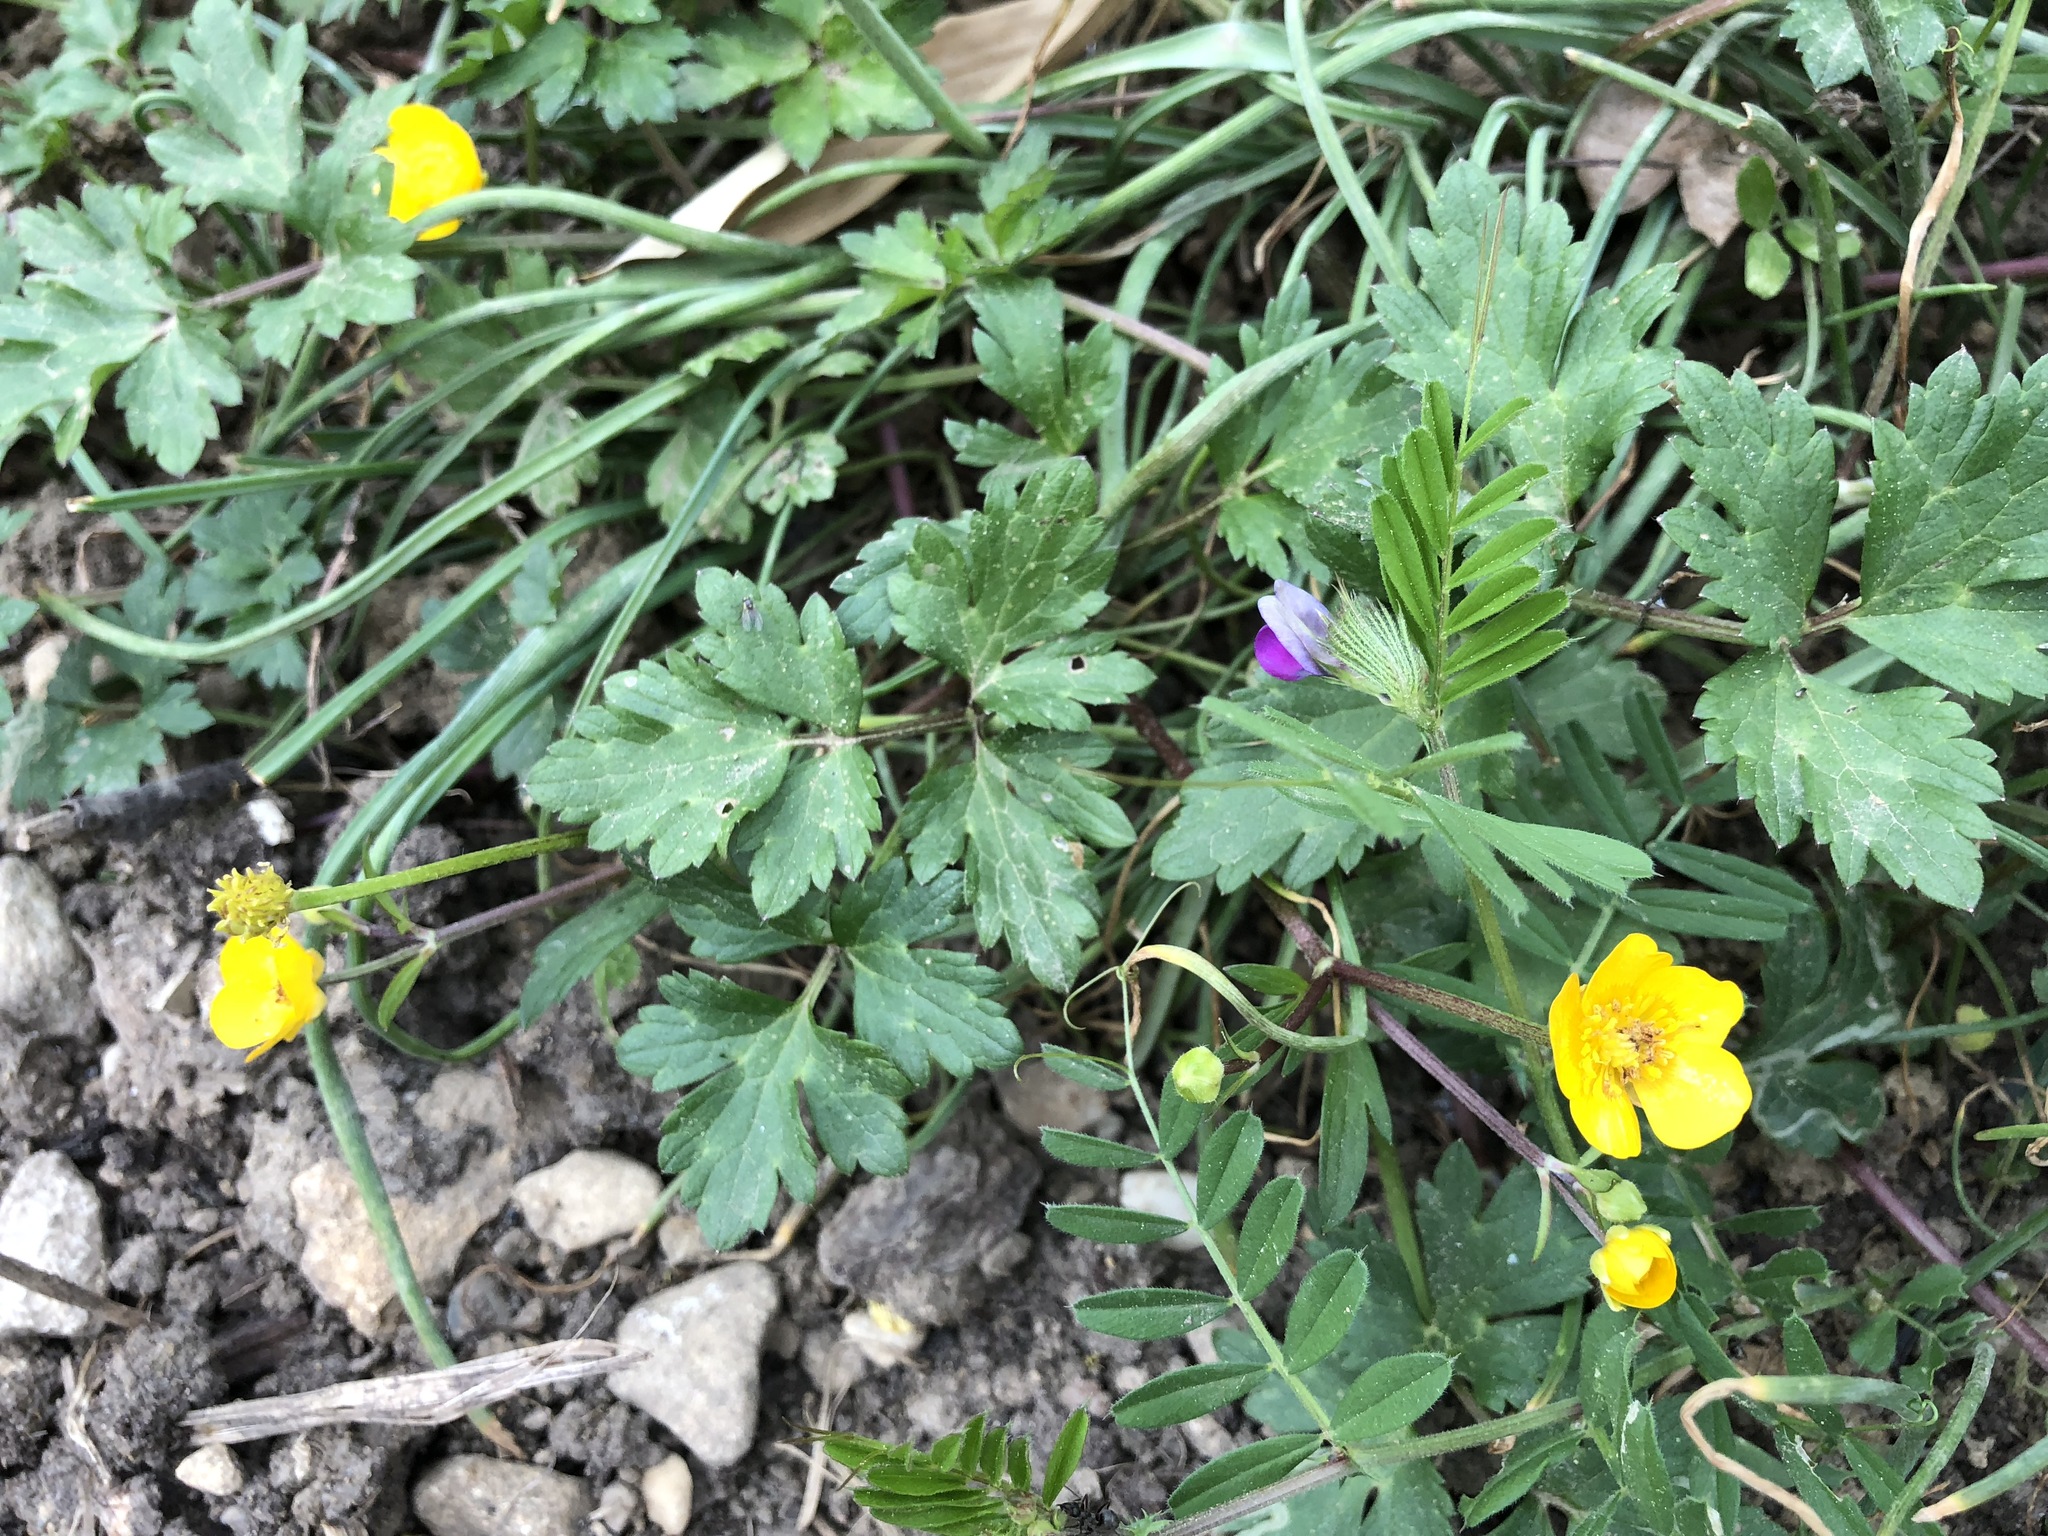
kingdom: Plantae
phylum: Tracheophyta
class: Magnoliopsida
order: Ranunculales
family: Ranunculaceae
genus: Ranunculus
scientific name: Ranunculus repens
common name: Creeping buttercup
